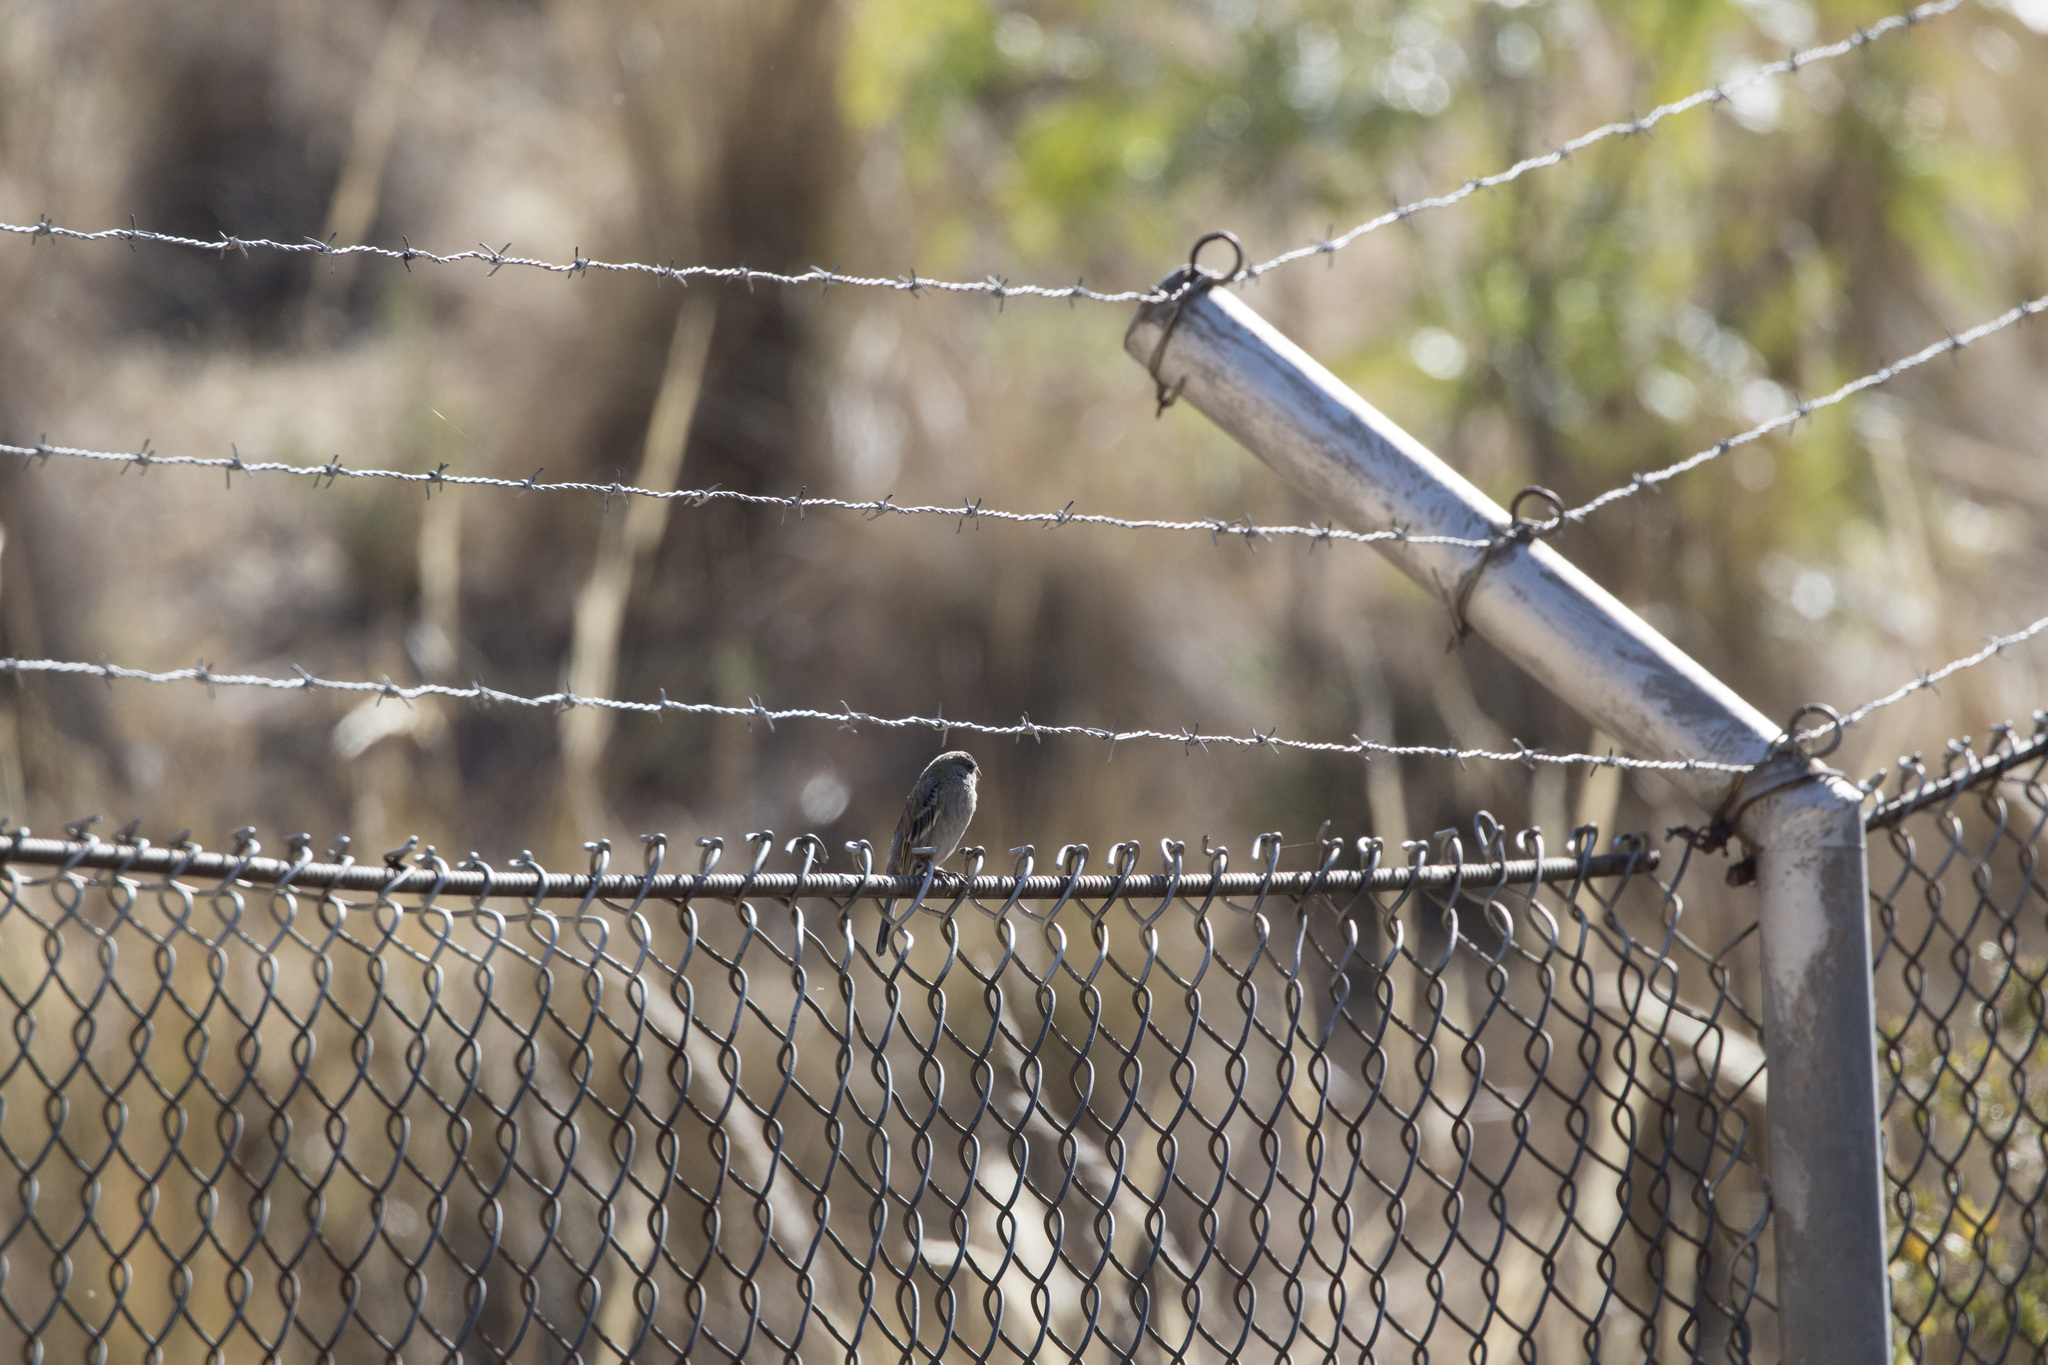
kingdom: Animalia
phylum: Chordata
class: Aves
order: Passeriformes
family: Thraupidae
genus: Catamenia
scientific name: Catamenia analis
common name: Band-tailed seedeater
